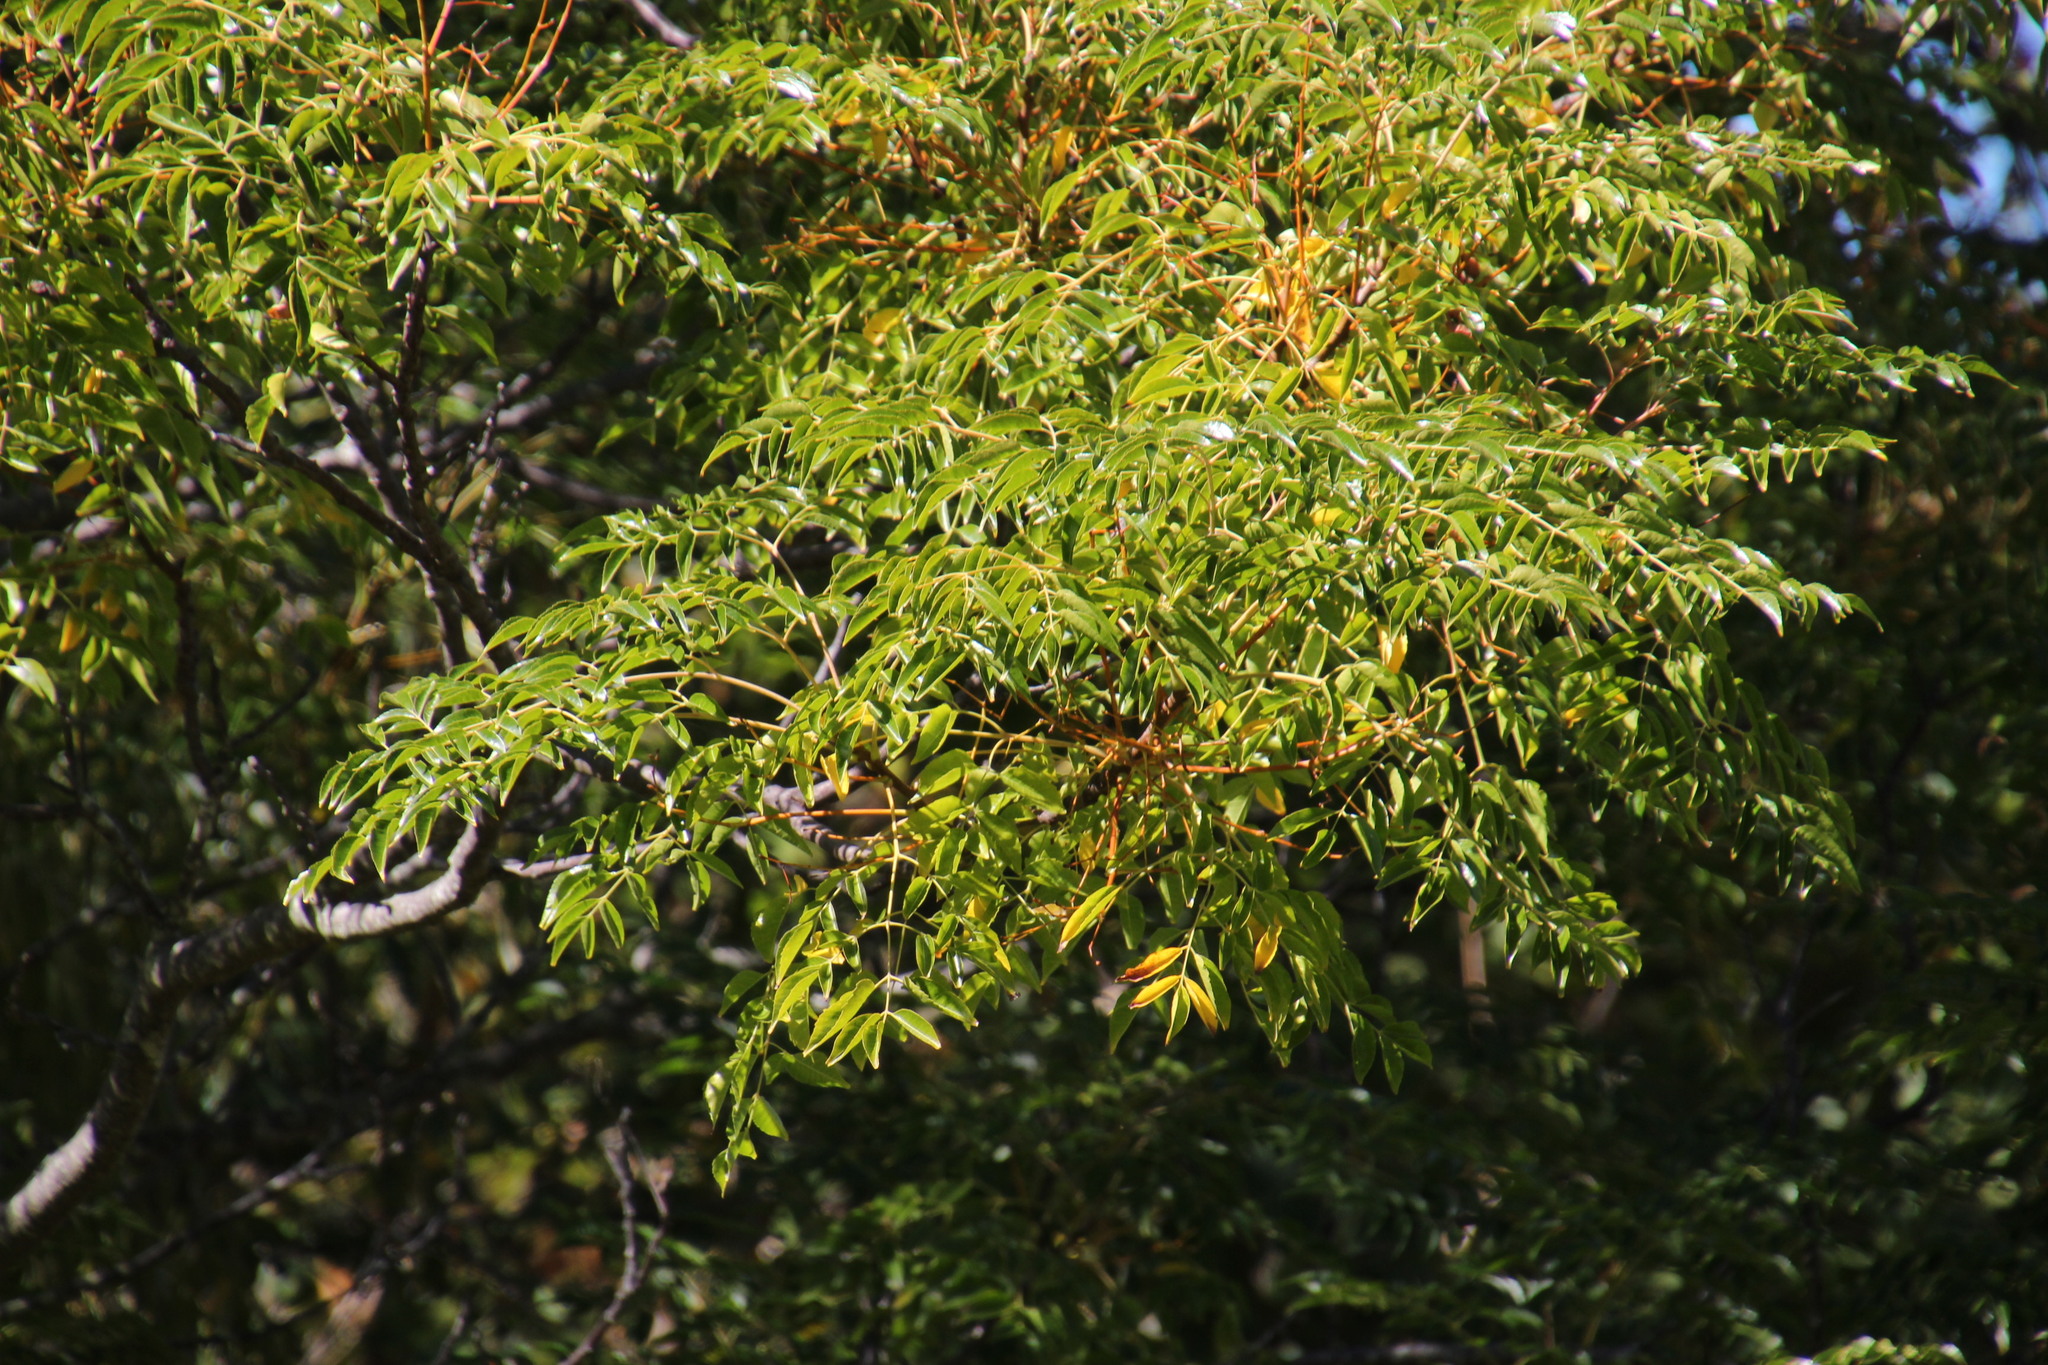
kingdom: Plantae
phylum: Tracheophyta
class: Magnoliopsida
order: Sapindales
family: Meliaceae
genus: Melia
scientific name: Melia azedarach
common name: Chinaberrytree
